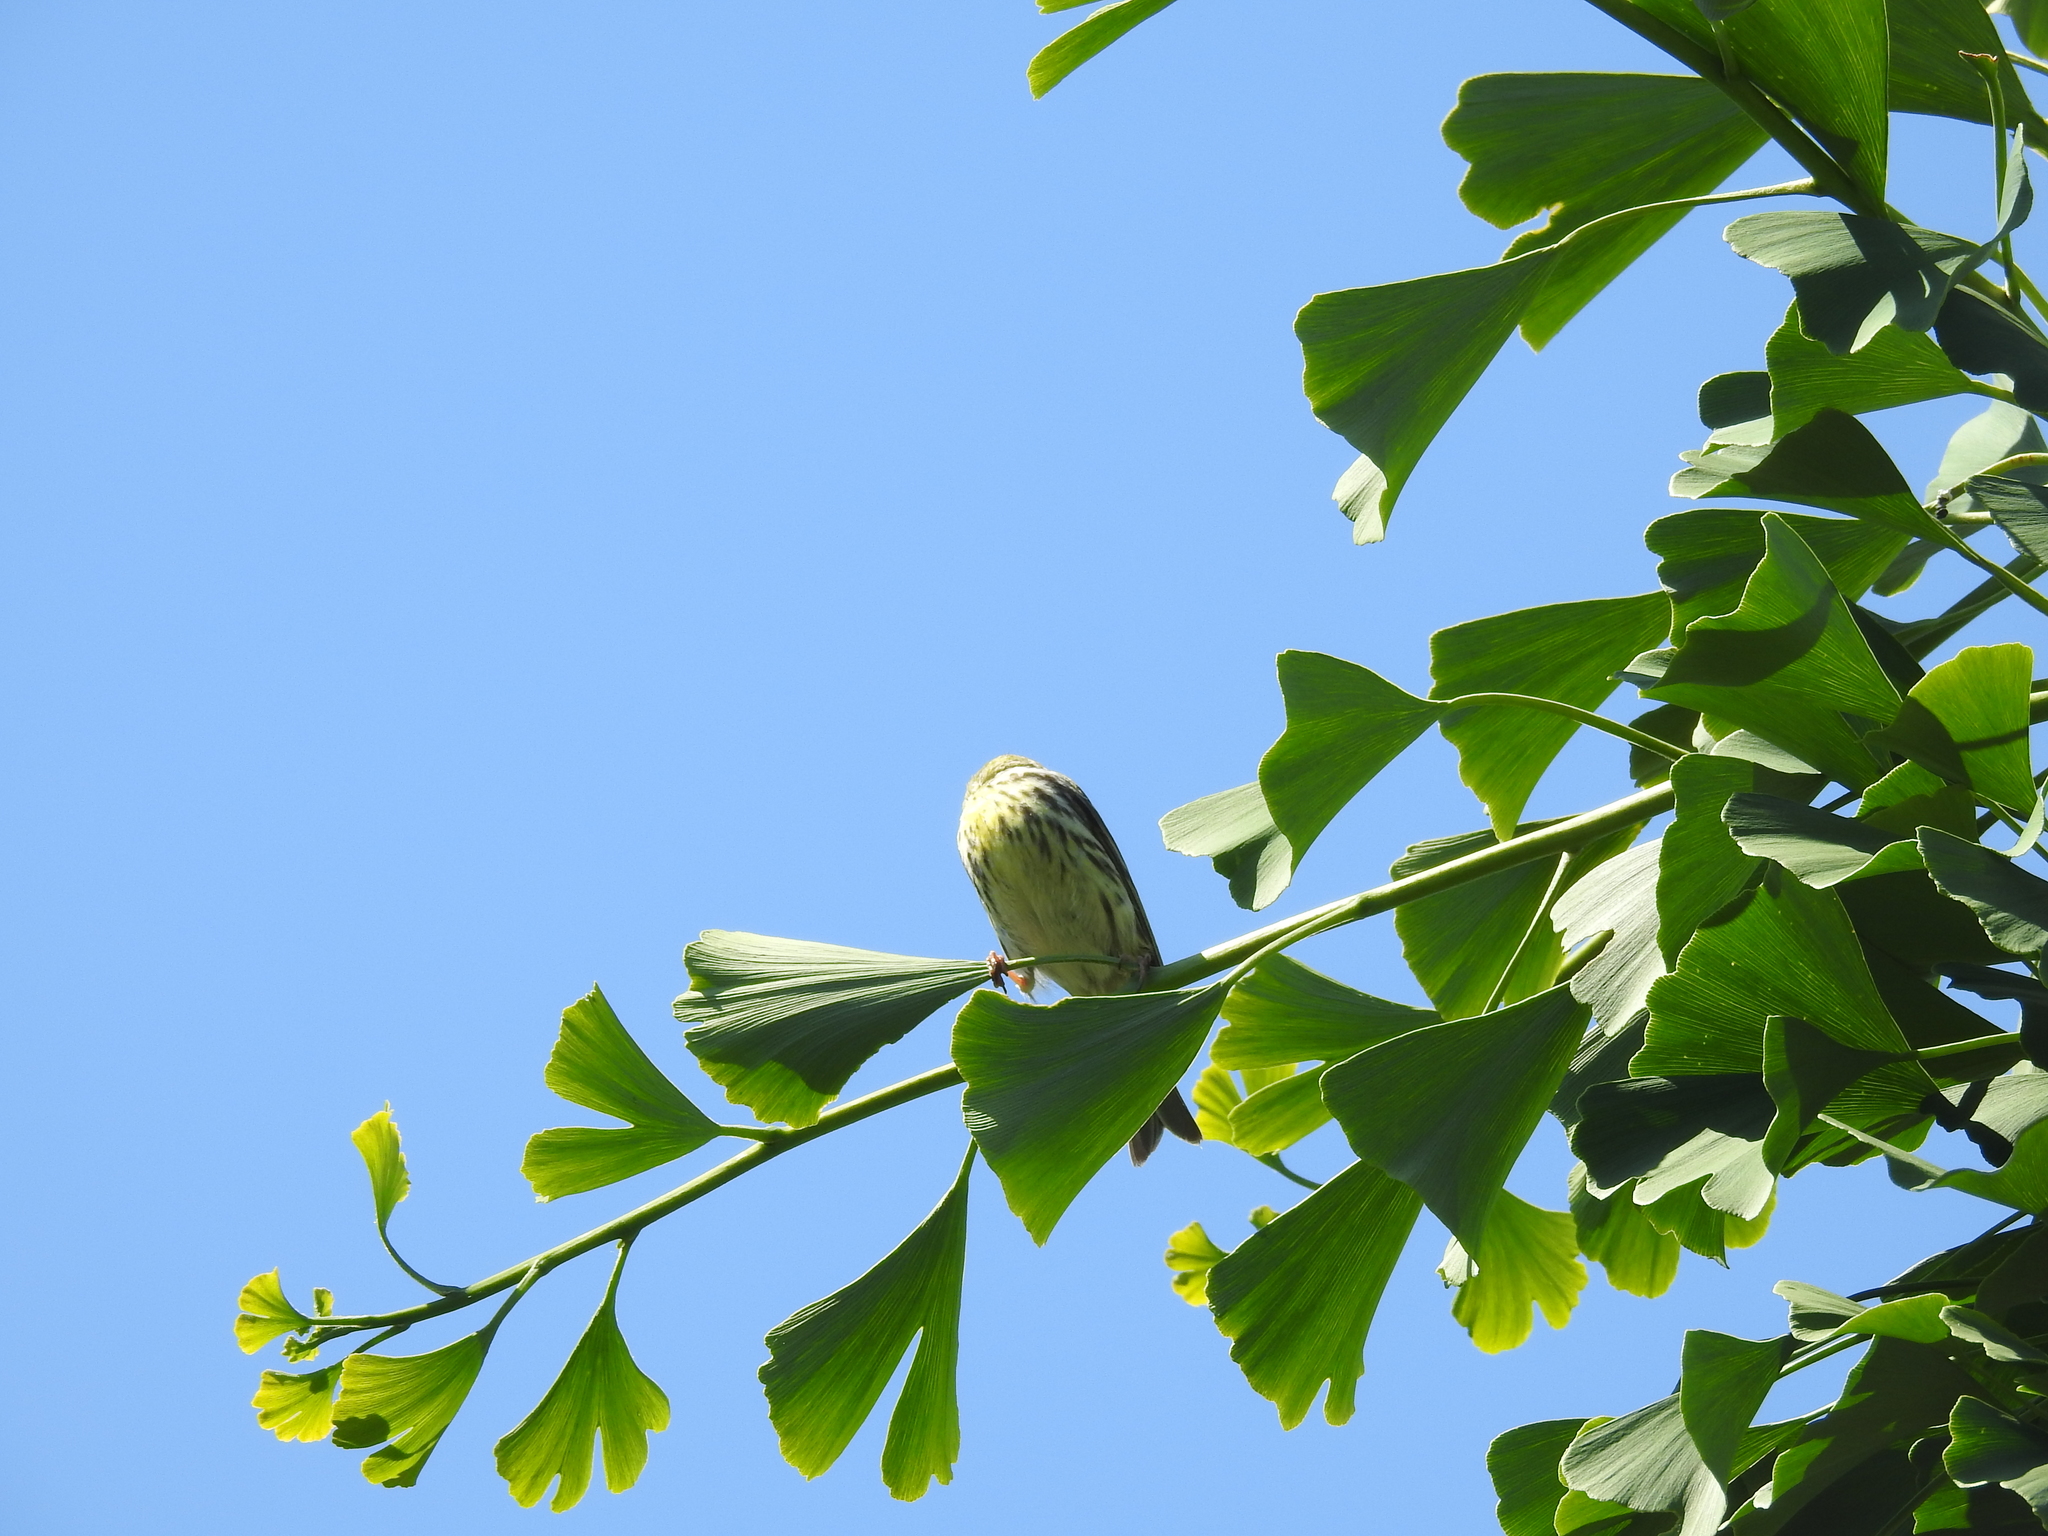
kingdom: Animalia
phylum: Chordata
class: Aves
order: Passeriformes
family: Emberizidae
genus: Emberiza
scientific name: Emberiza citrinella
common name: Yellowhammer
